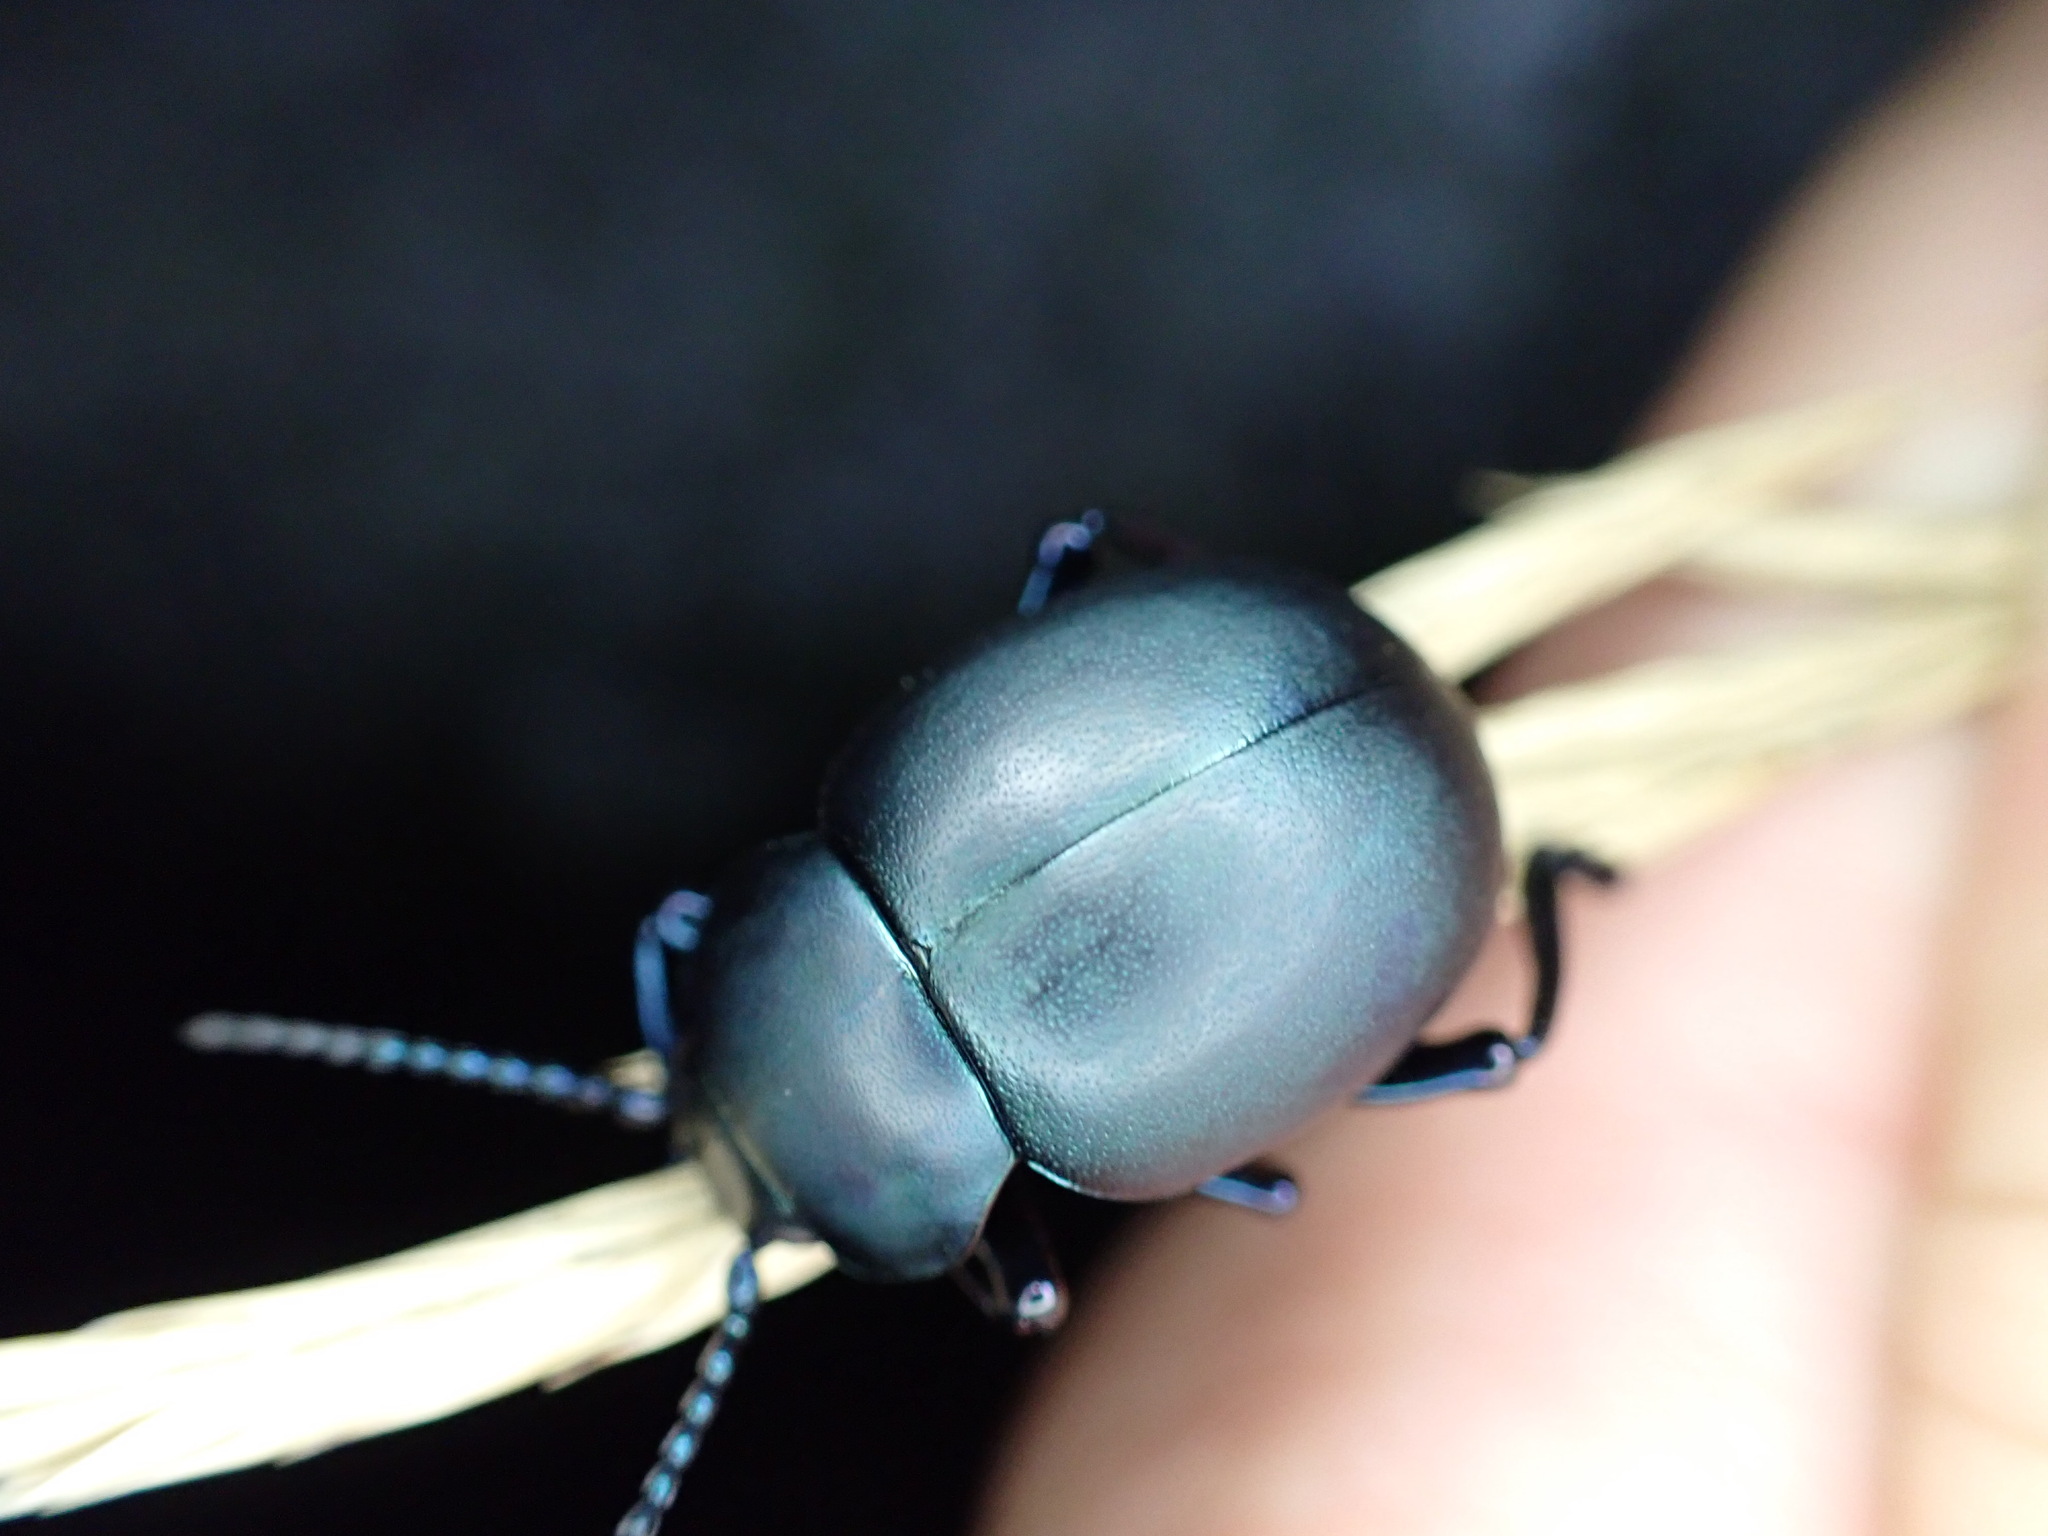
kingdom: Animalia
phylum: Arthropoda
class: Insecta
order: Coleoptera
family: Chrysomelidae
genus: Timarcha
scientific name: Timarcha tenebricosa
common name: Bloody-nosed beetle
